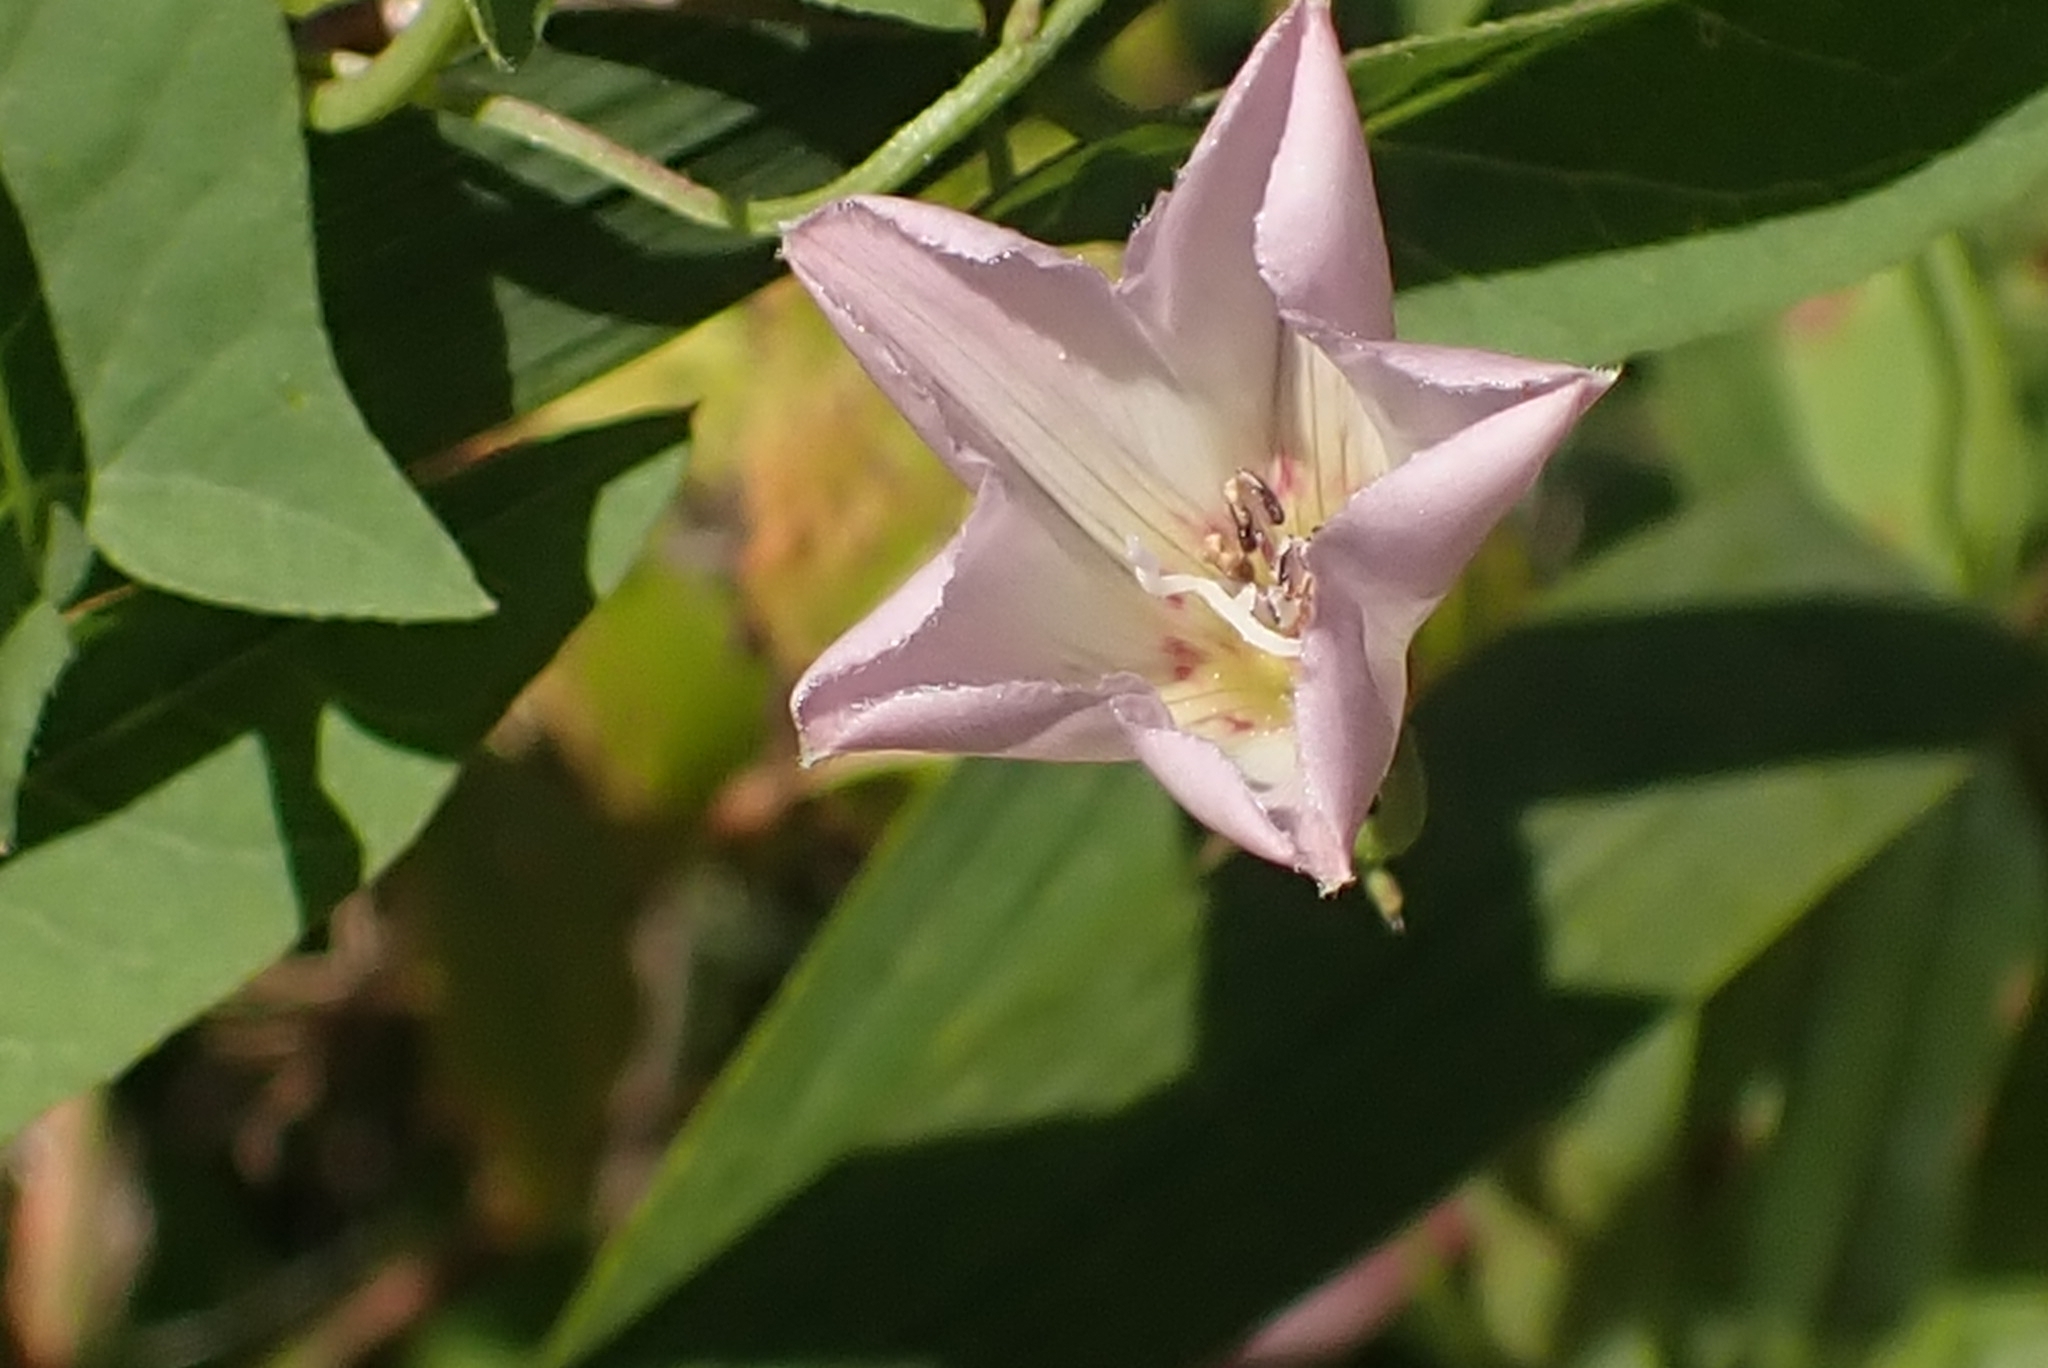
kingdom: Plantae
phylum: Tracheophyta
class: Magnoliopsida
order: Solanales
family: Convolvulaceae
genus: Convolvulus
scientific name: Convolvulus arvensis
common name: Field bindweed
